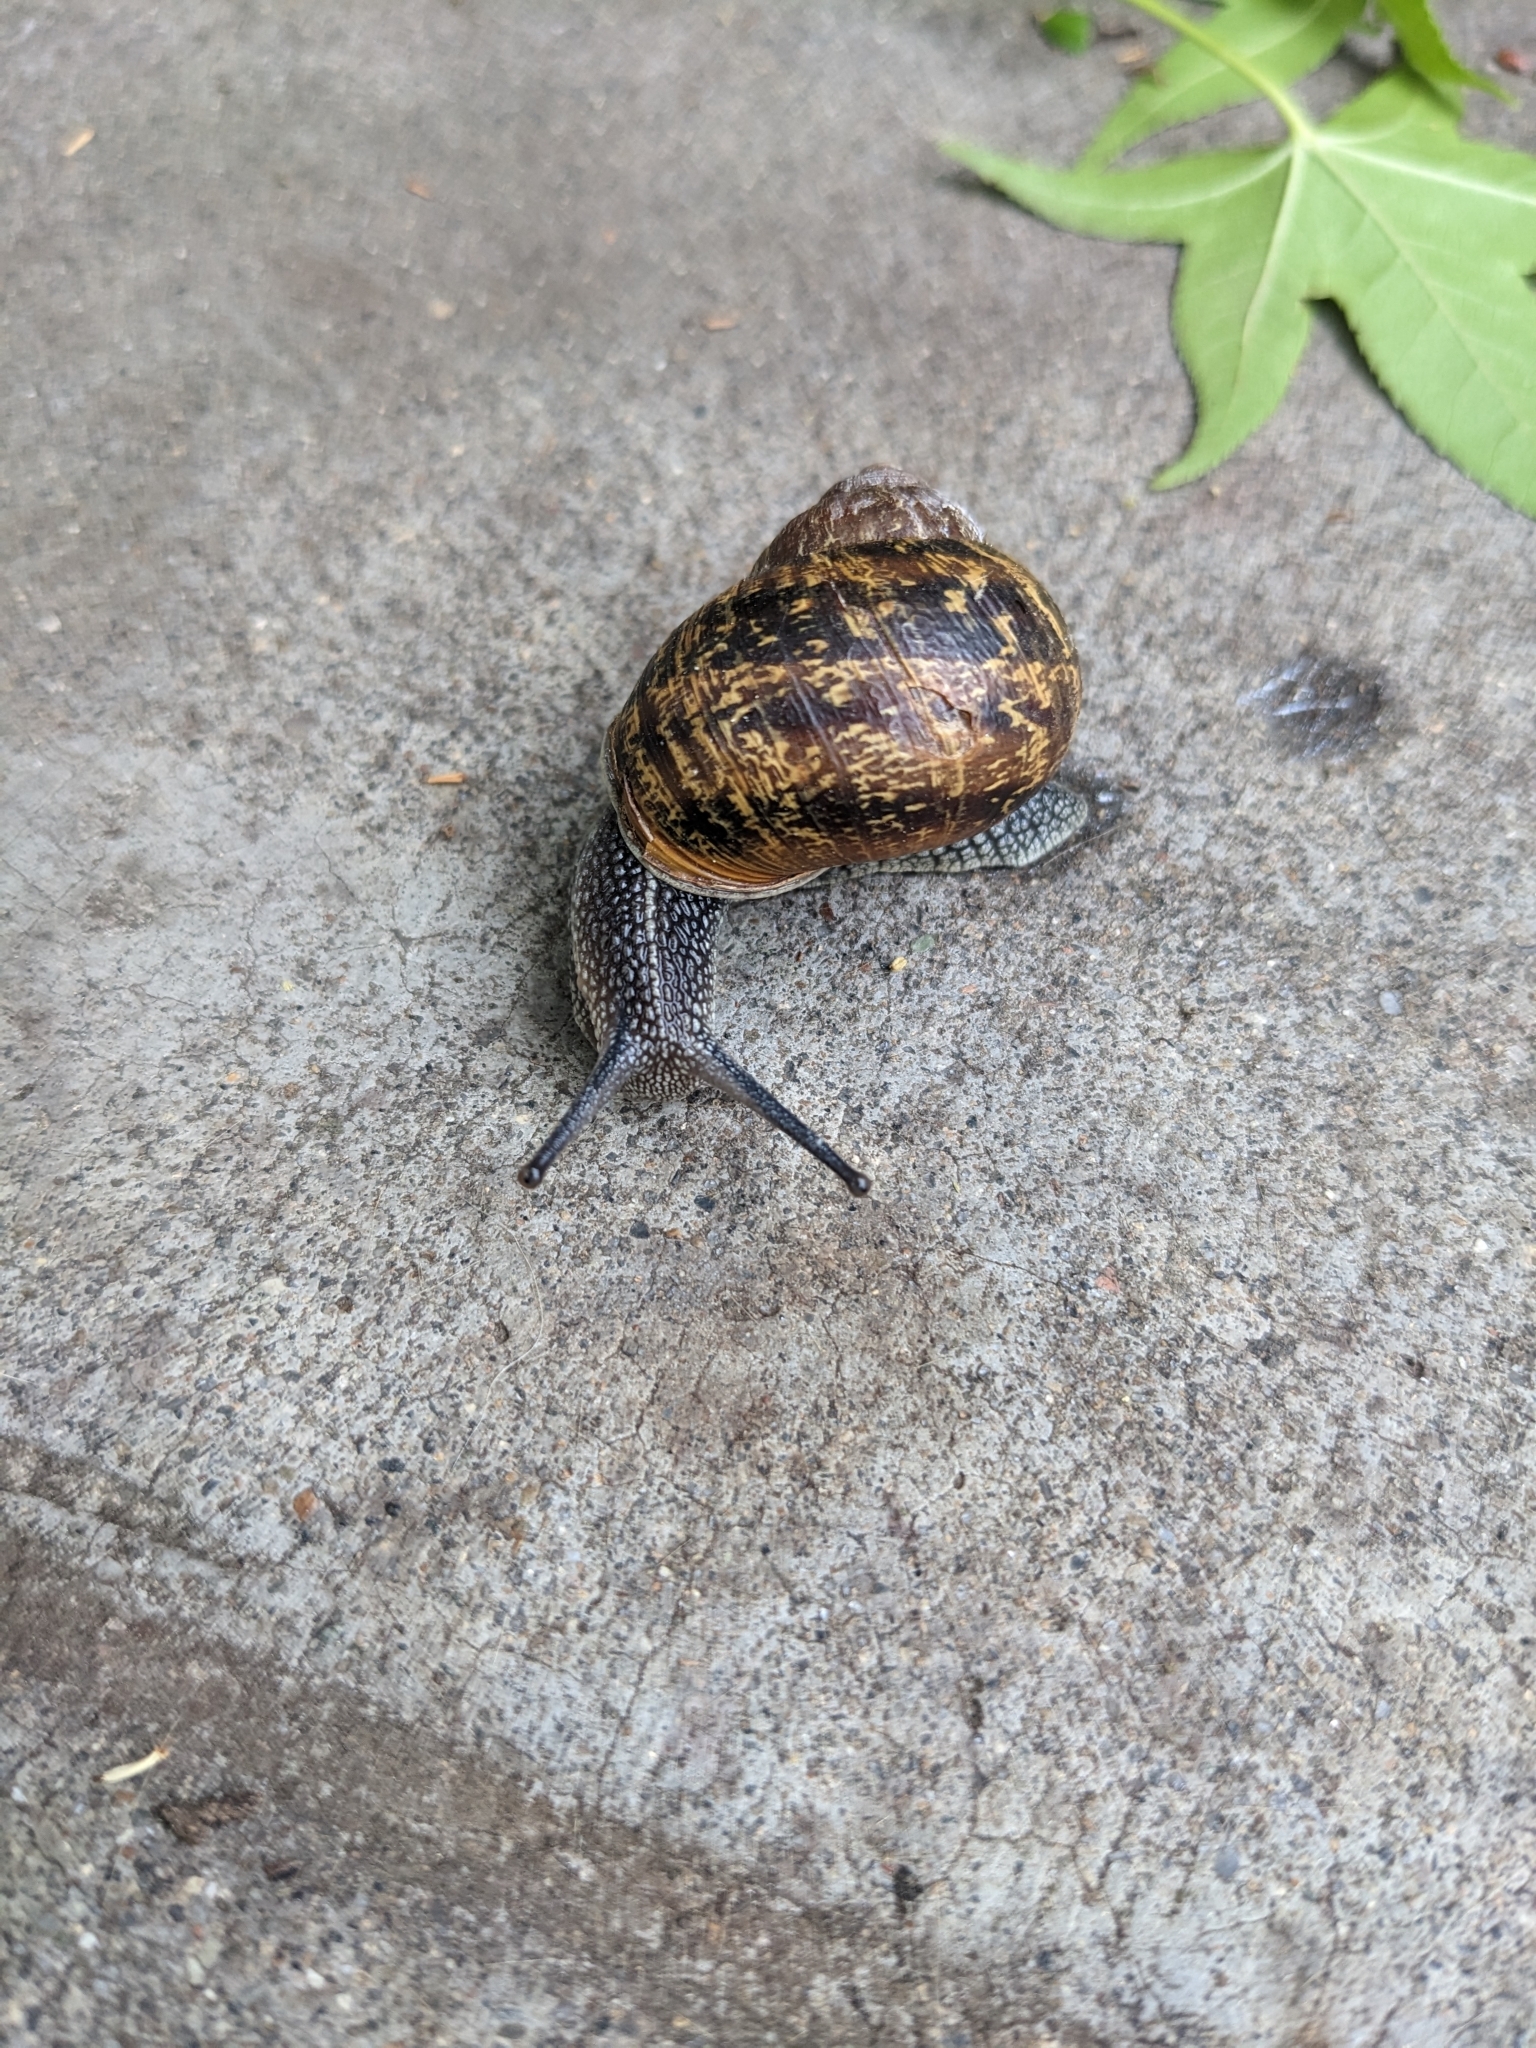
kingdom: Animalia
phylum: Mollusca
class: Gastropoda
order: Stylommatophora
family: Helicidae
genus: Cornu
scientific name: Cornu aspersum
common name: Brown garden snail
